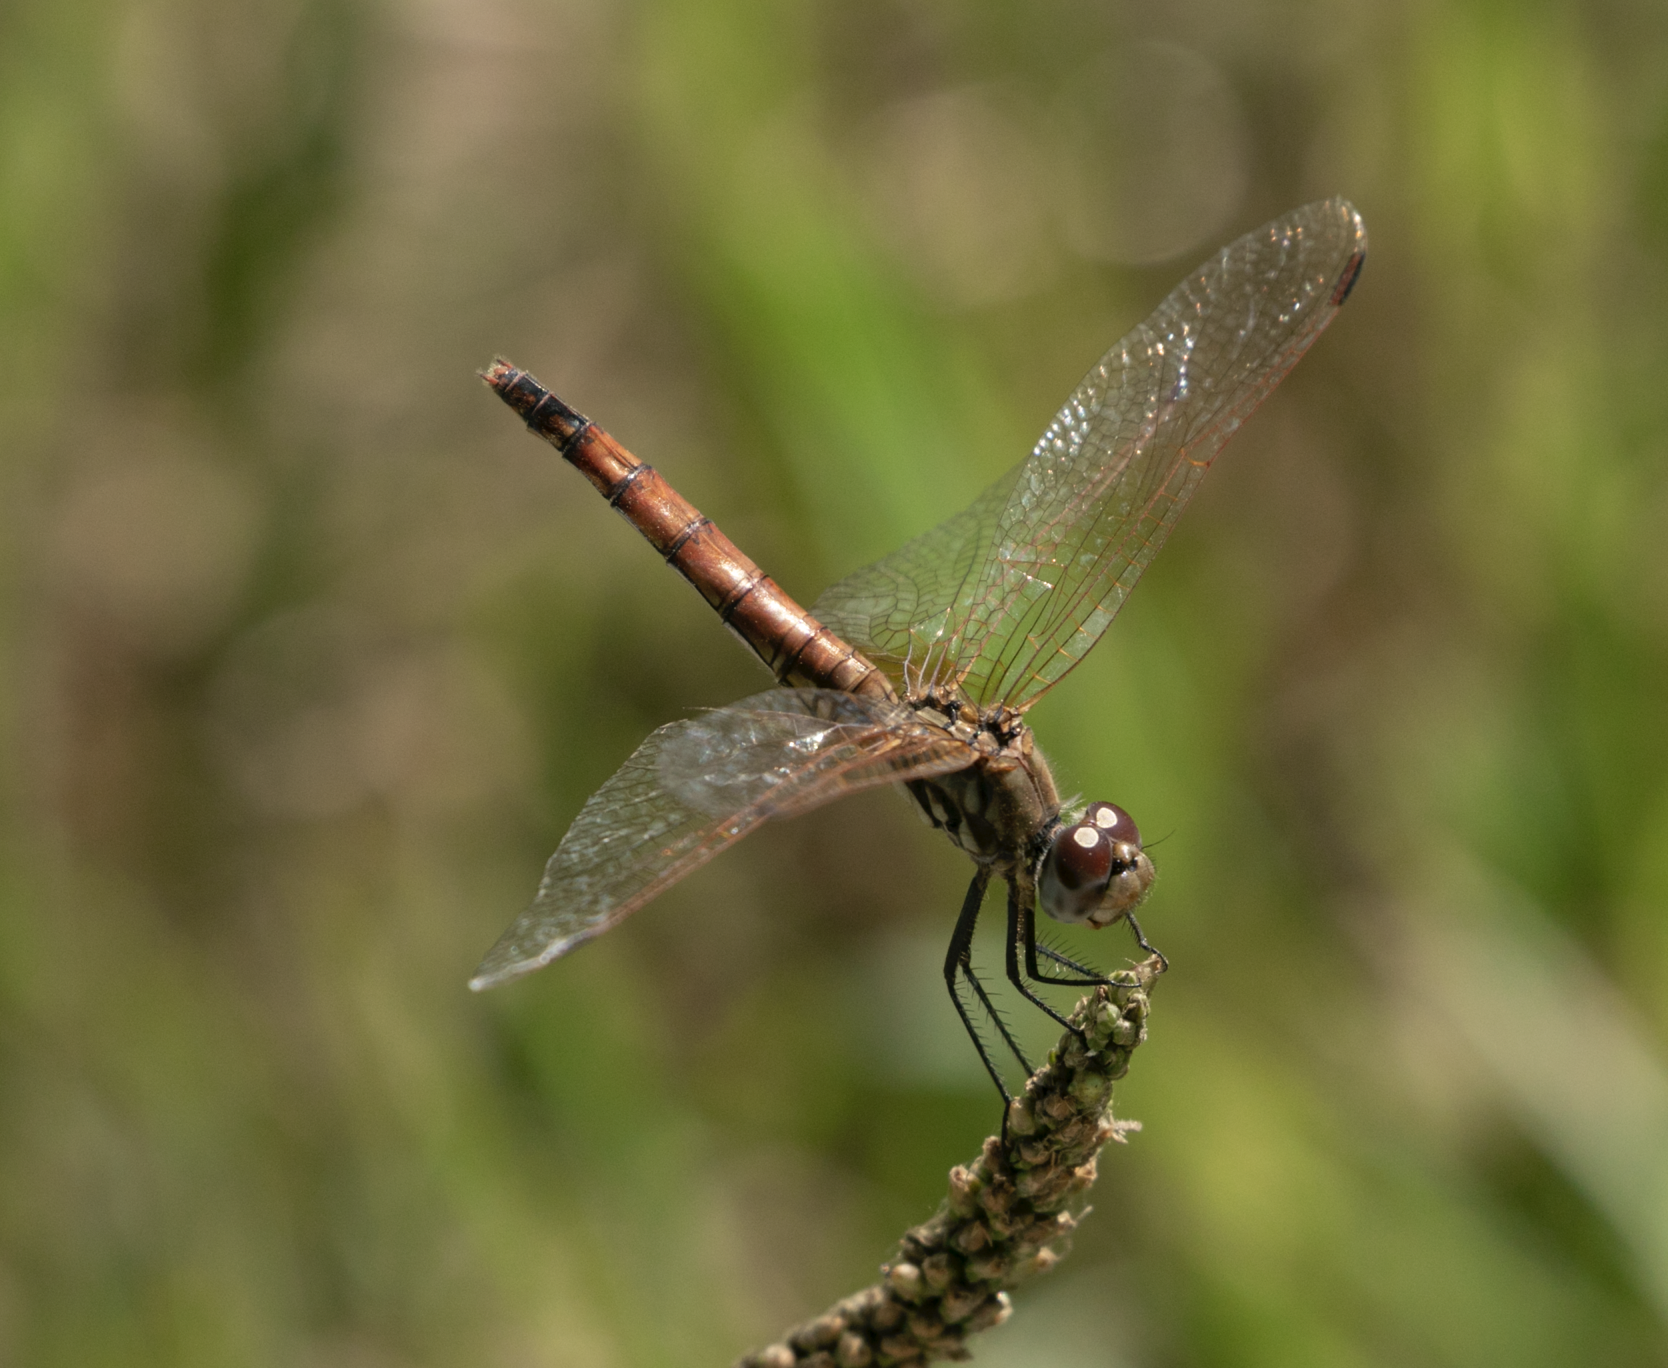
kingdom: Animalia
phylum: Arthropoda
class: Insecta
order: Odonata
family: Libellulidae
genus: Trithemis
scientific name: Trithemis annulata
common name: Violet dropwing
